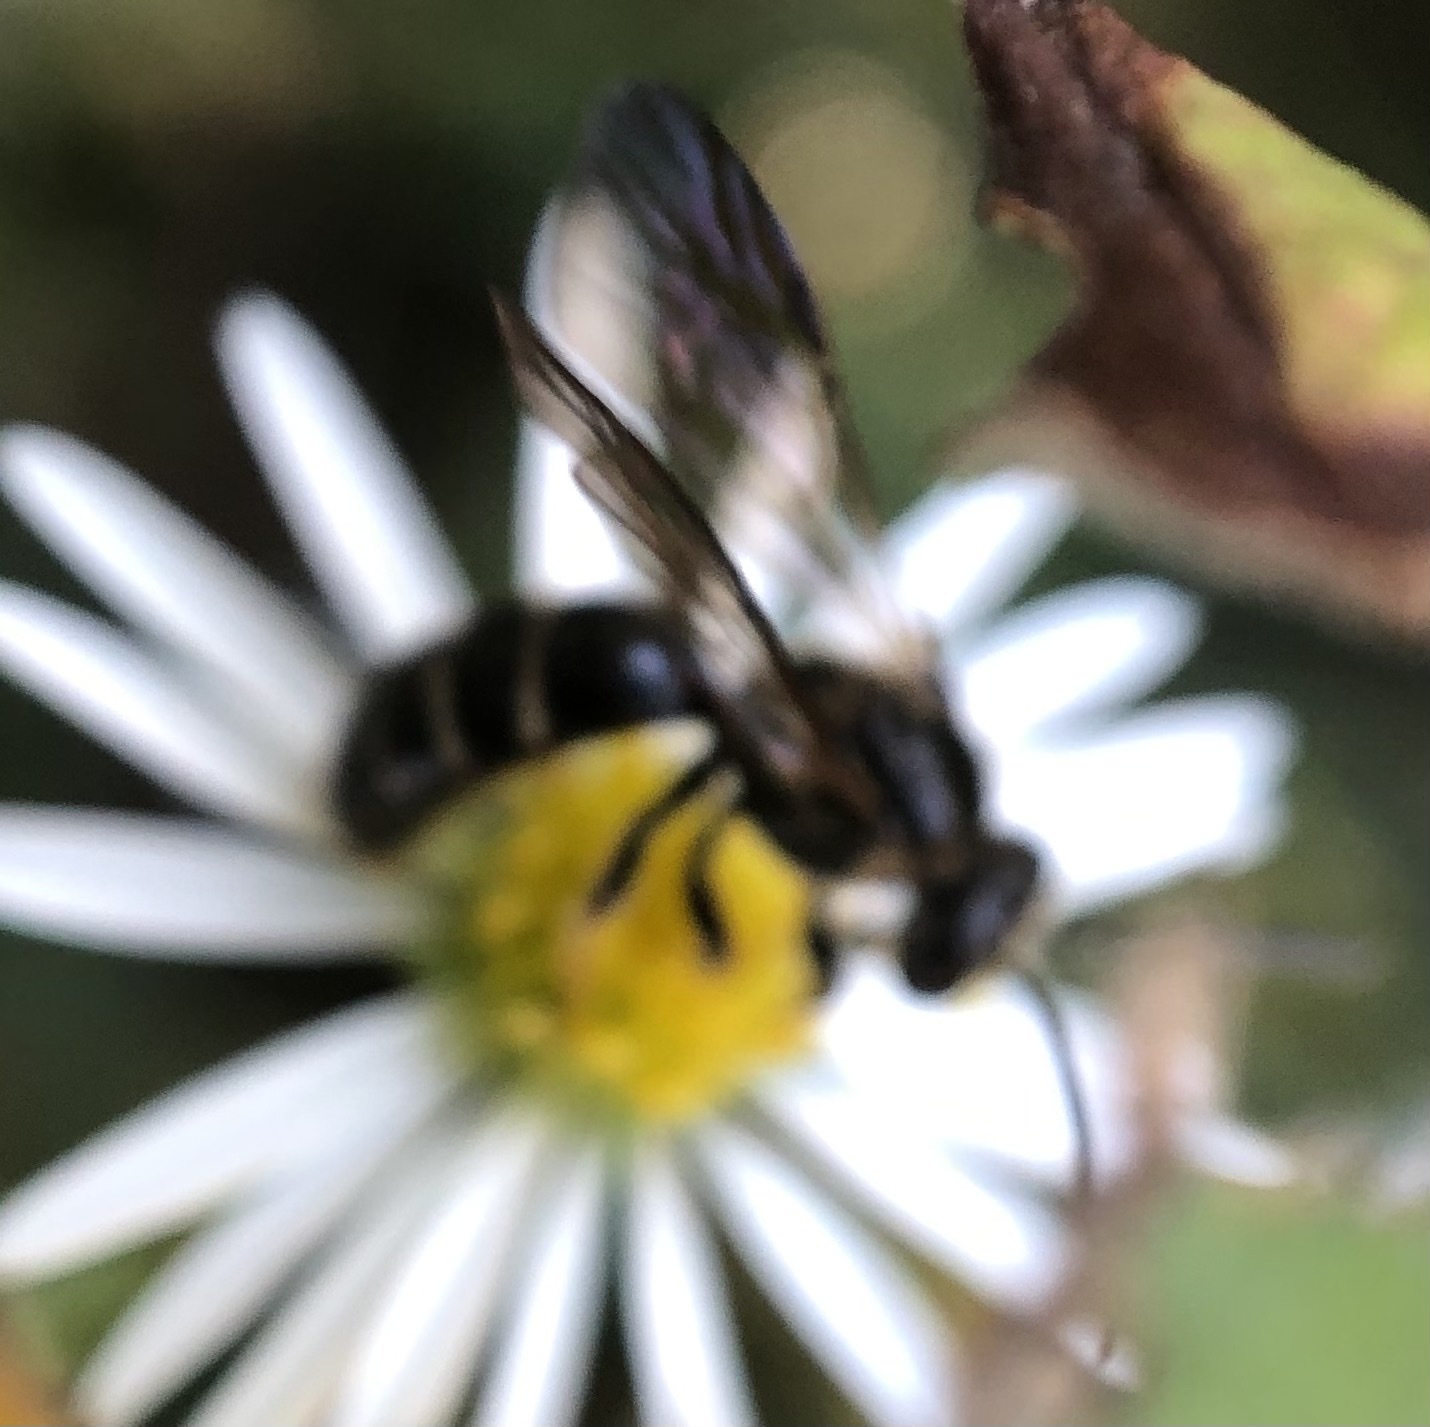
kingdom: Animalia
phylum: Arthropoda
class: Insecta
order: Hymenoptera
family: Halictidae
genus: Lasioglossum
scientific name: Lasioglossum fuscipenne
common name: Brown-winged sweat bee
